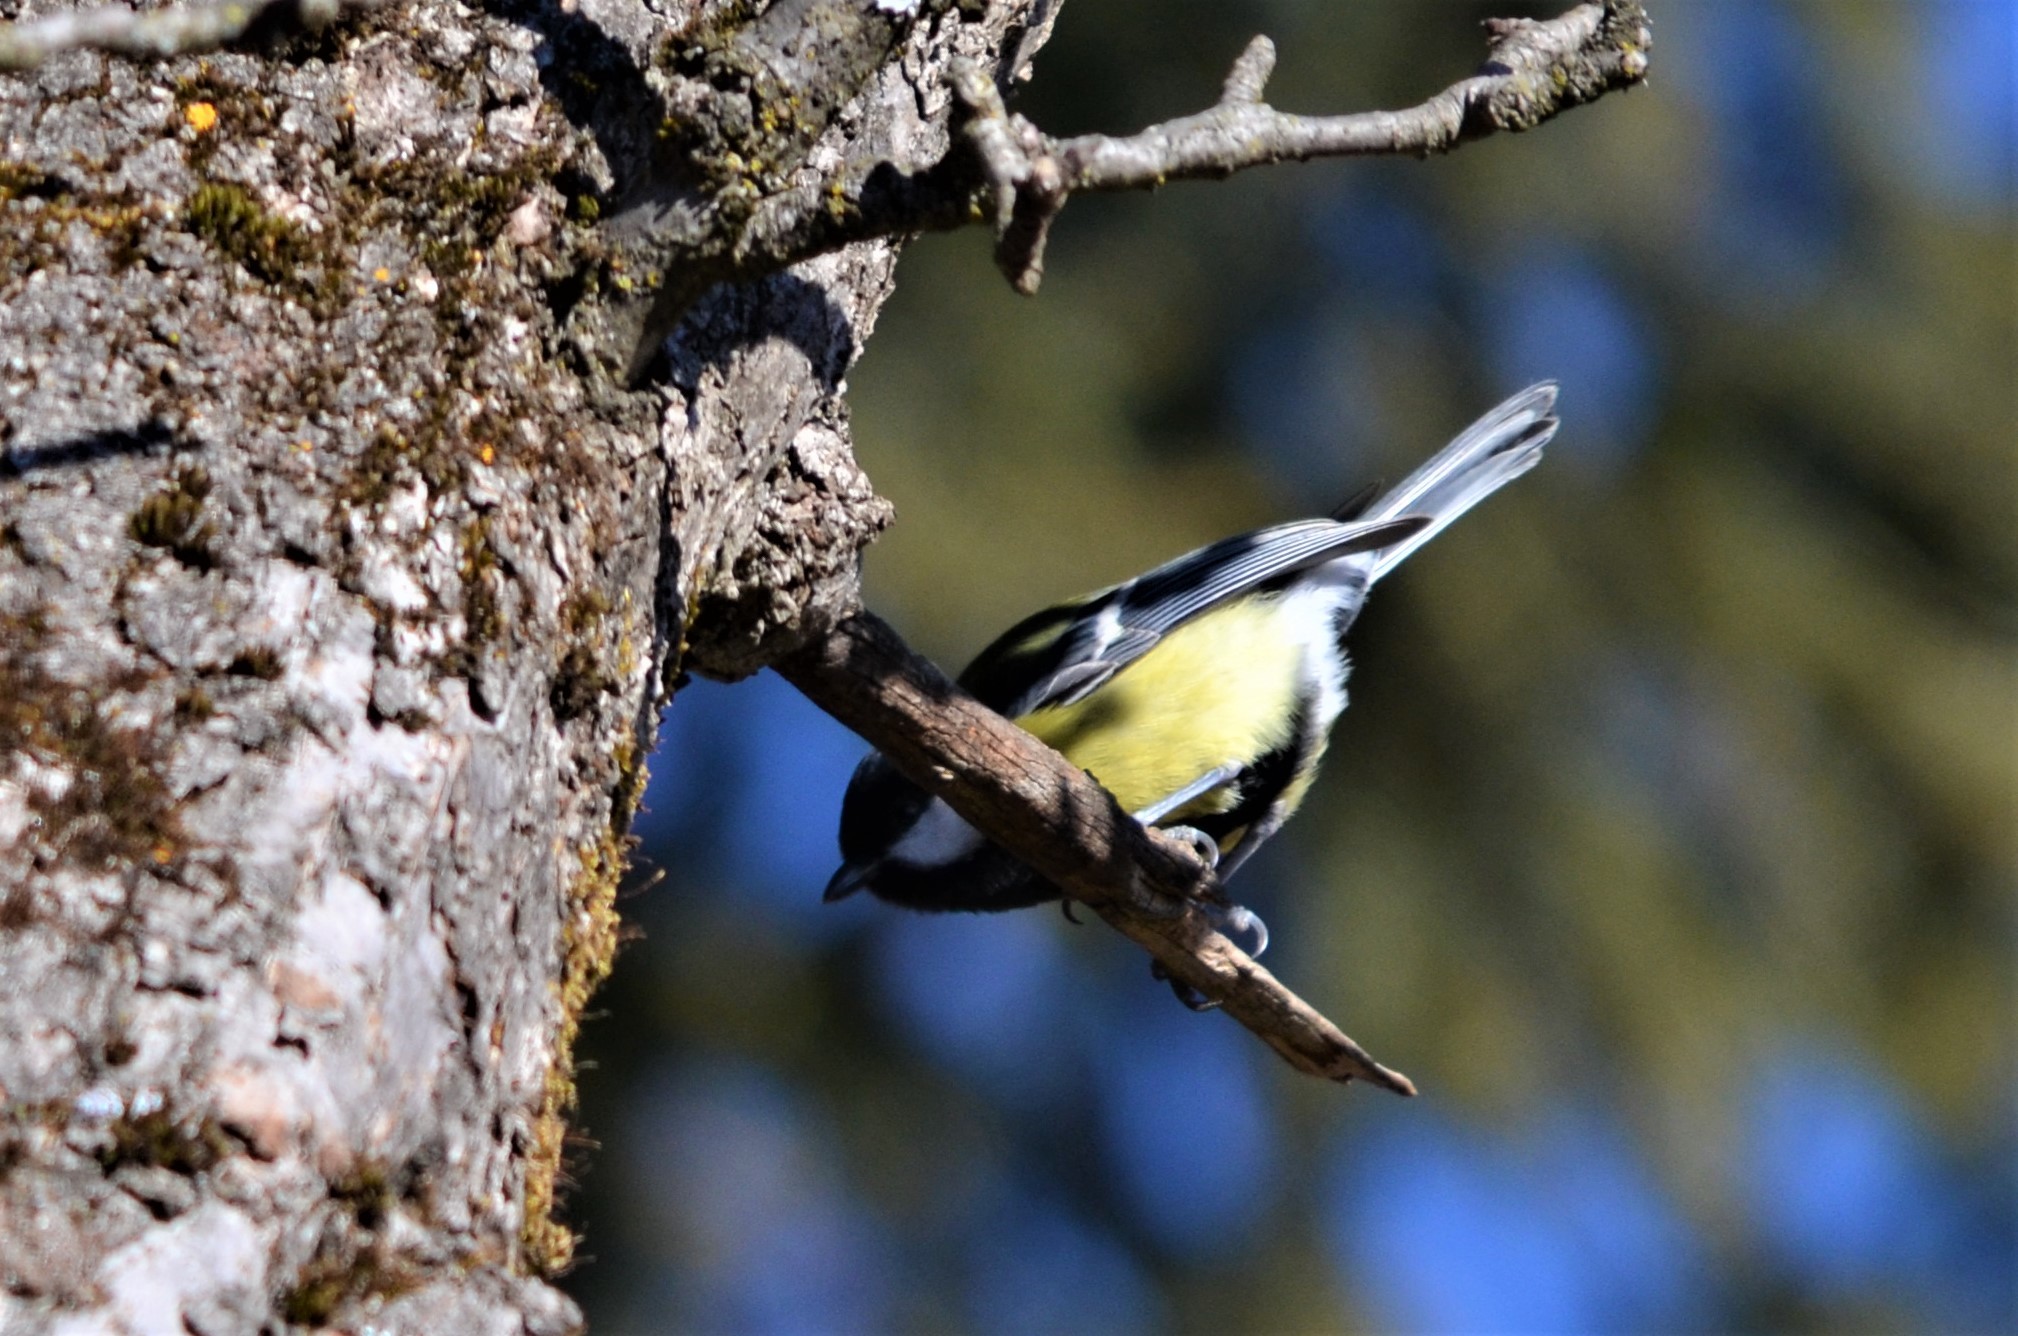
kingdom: Animalia
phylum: Chordata
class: Aves
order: Passeriformes
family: Paridae
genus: Parus
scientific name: Parus major
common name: Great tit
